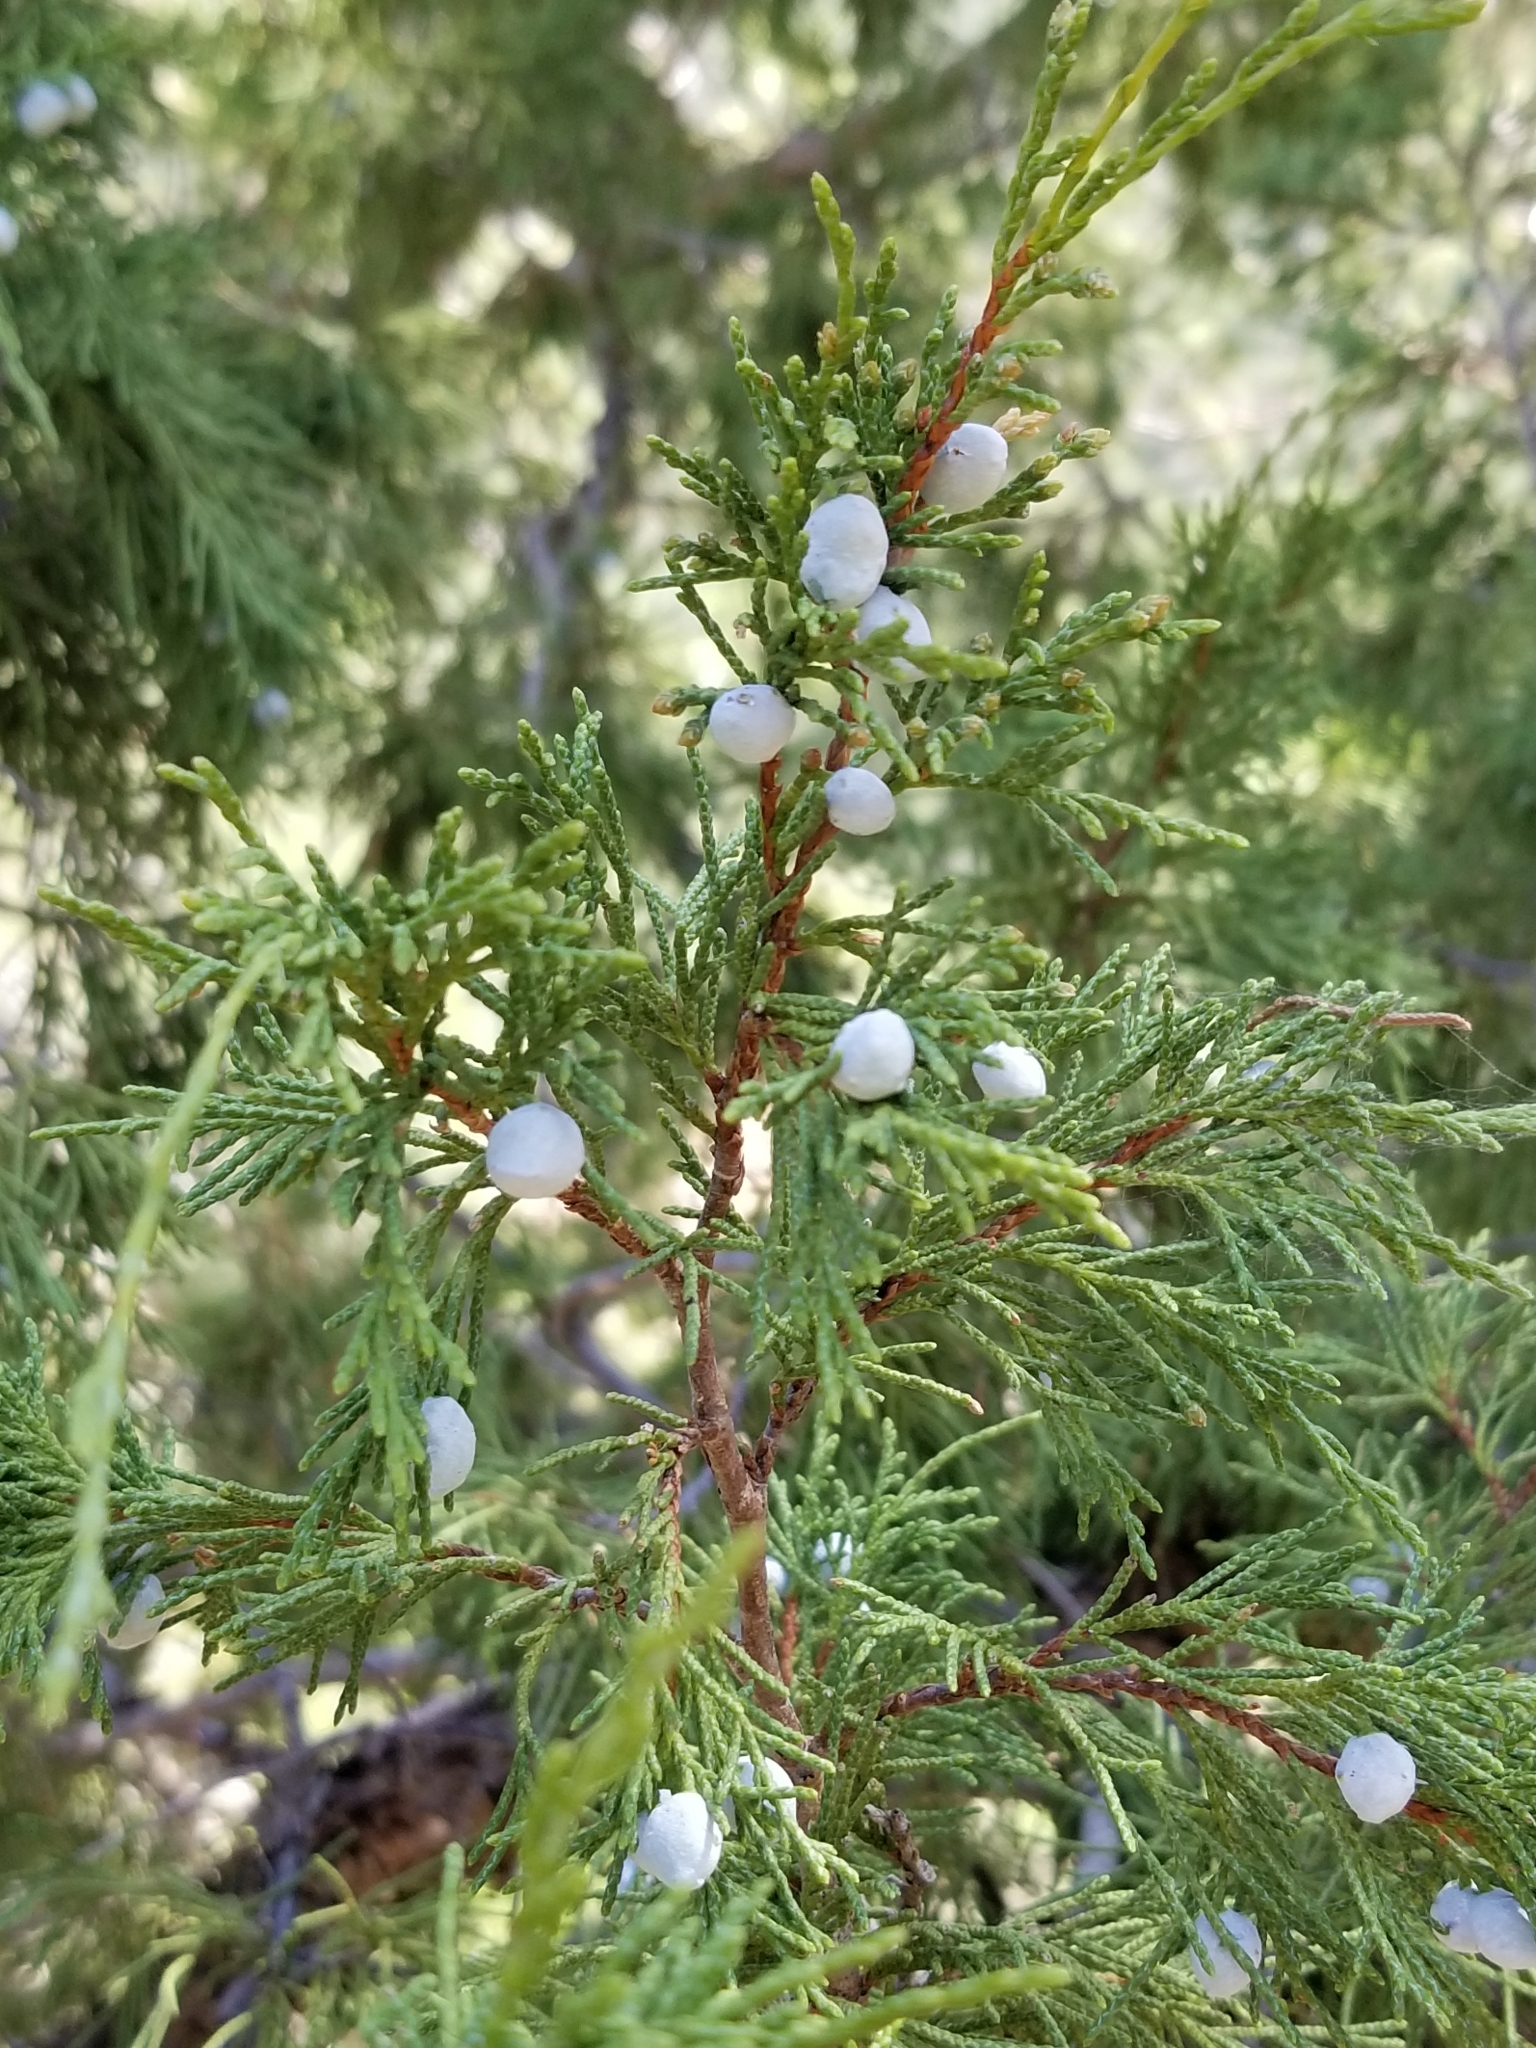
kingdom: Plantae
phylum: Tracheophyta
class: Pinopsida
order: Pinales
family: Cupressaceae
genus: Juniperus
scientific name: Juniperus scopulorum
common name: Rocky mountain juniper
